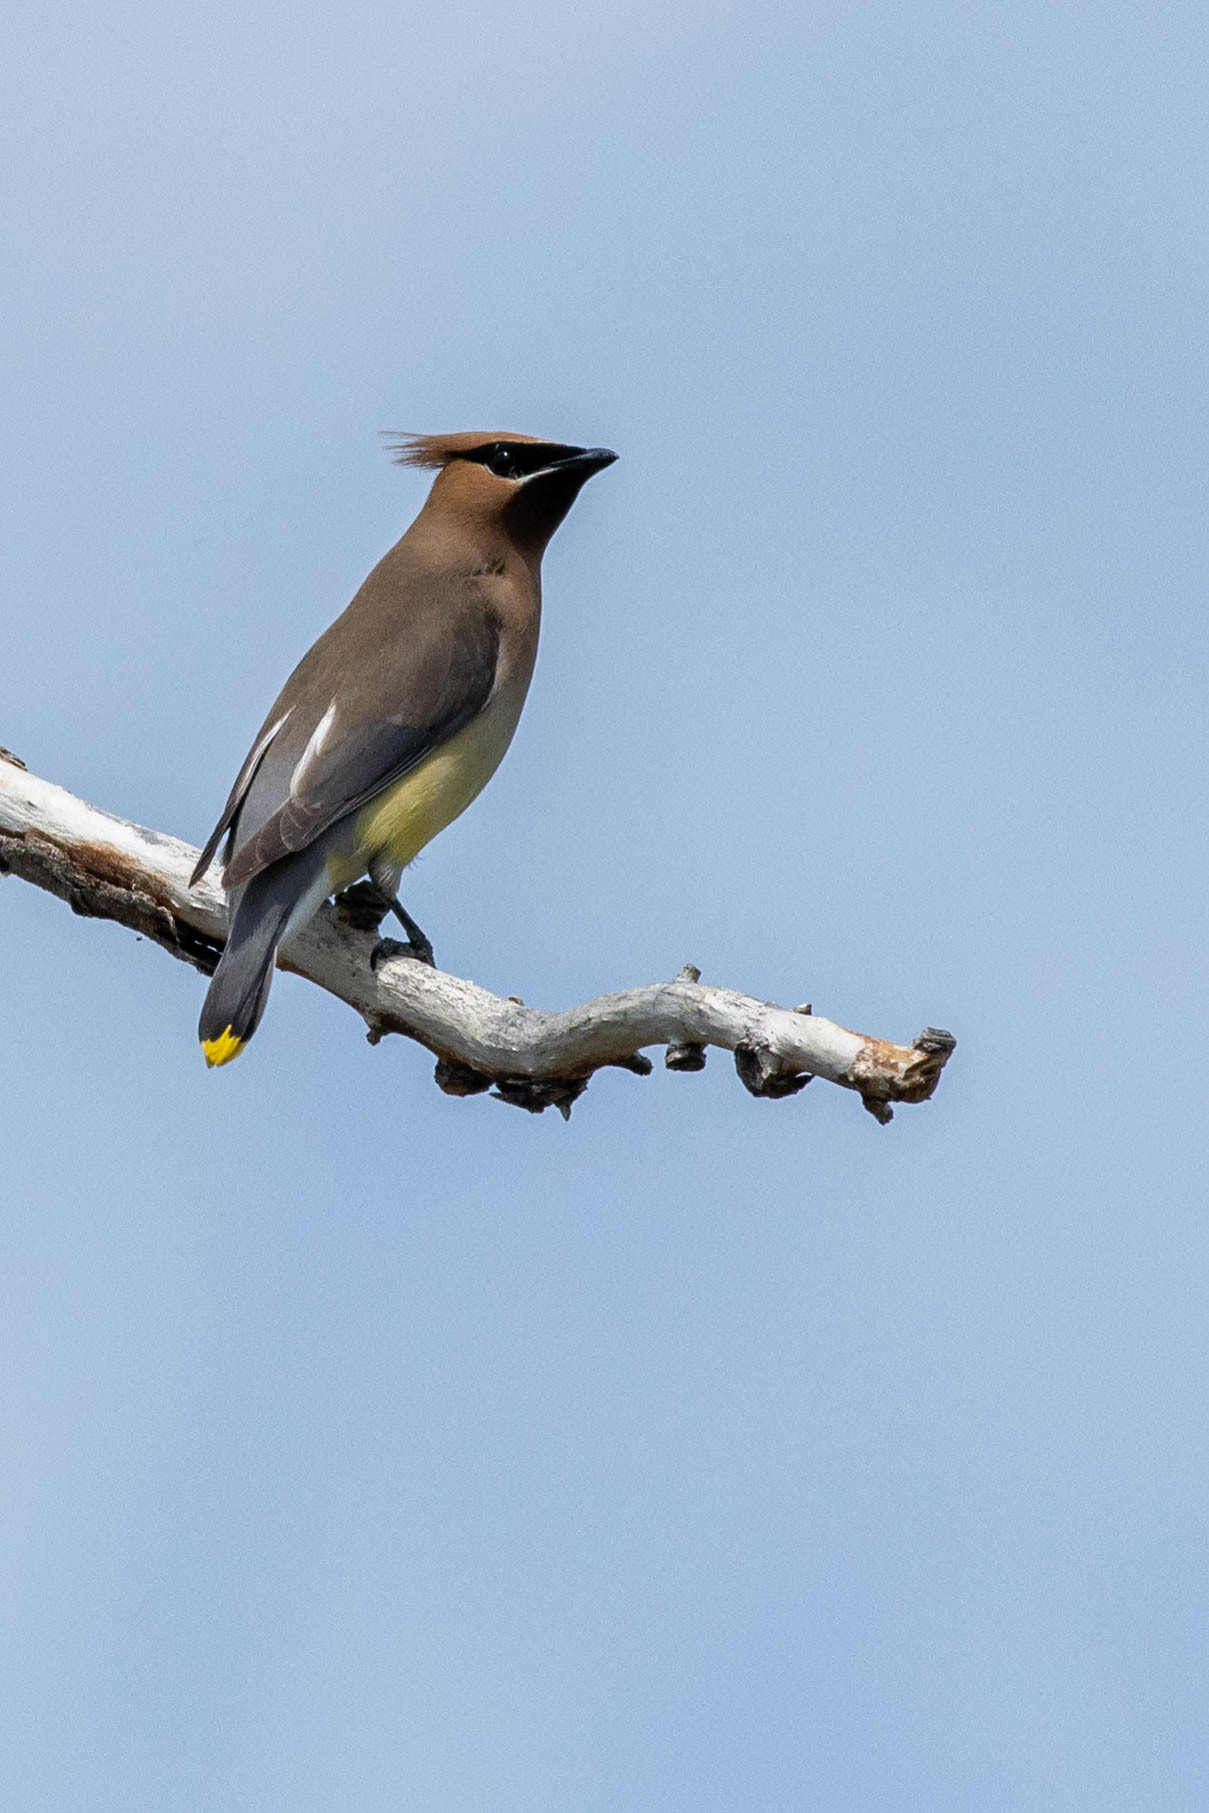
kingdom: Animalia
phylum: Chordata
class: Aves
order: Passeriformes
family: Bombycillidae
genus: Bombycilla
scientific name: Bombycilla cedrorum
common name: Cedar waxwing
